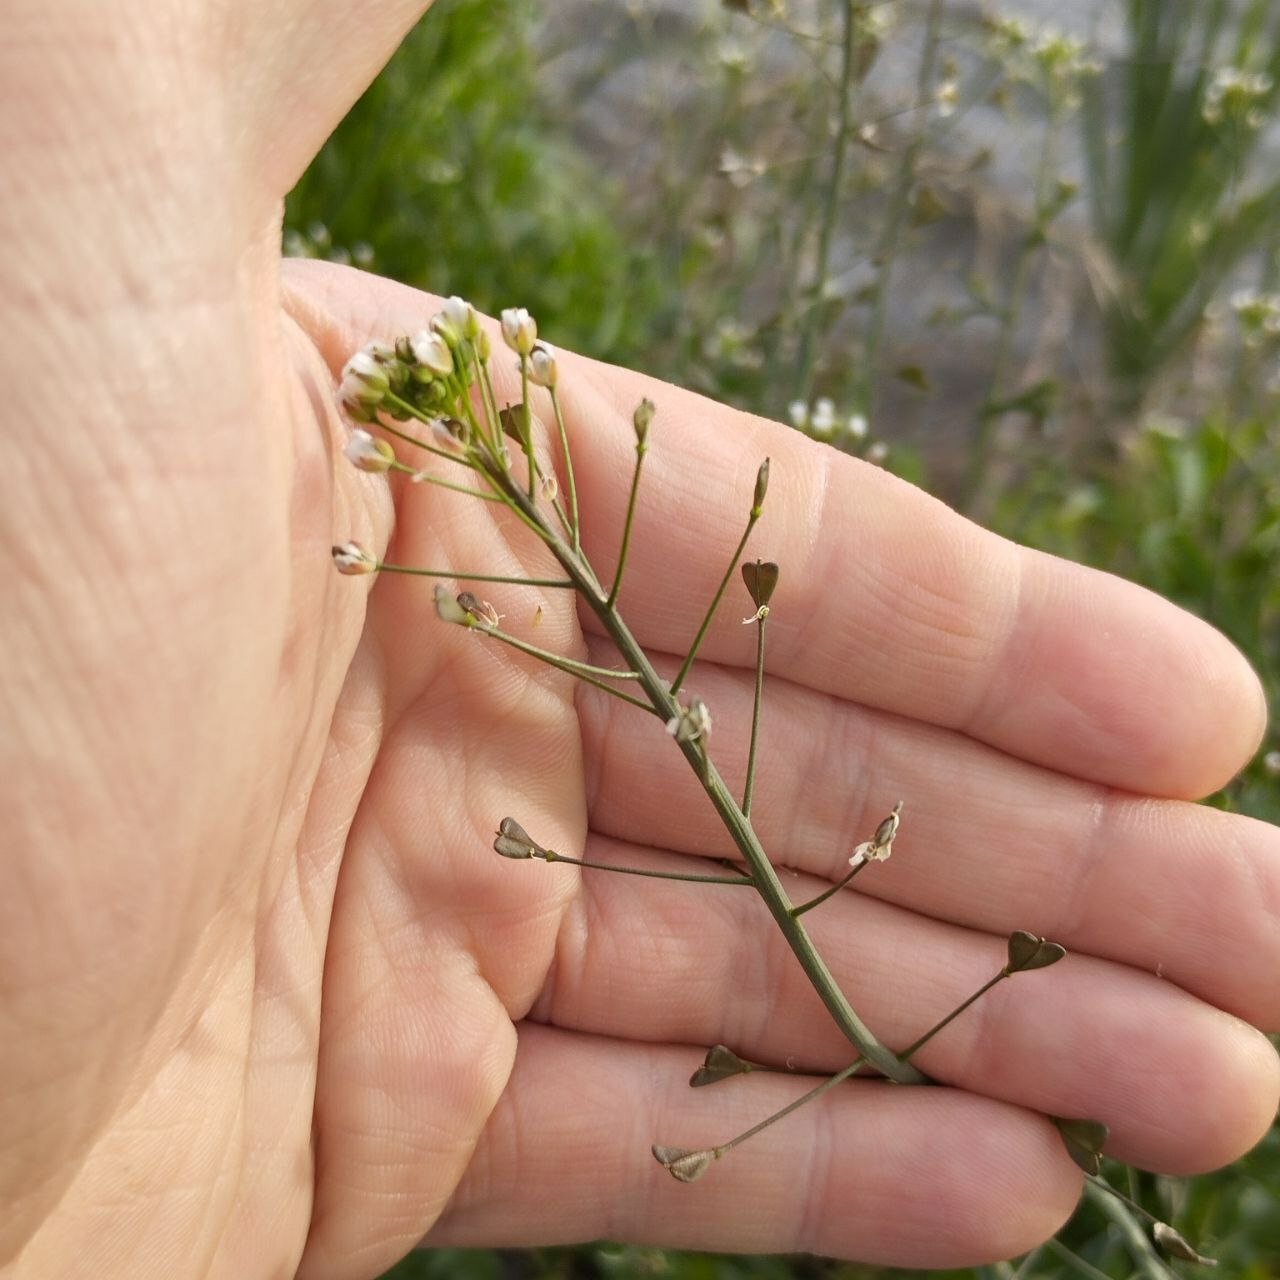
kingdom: Plantae
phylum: Tracheophyta
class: Magnoliopsida
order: Brassicales
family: Brassicaceae
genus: Capsella
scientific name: Capsella bursa-pastoris
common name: Shepherd's purse
